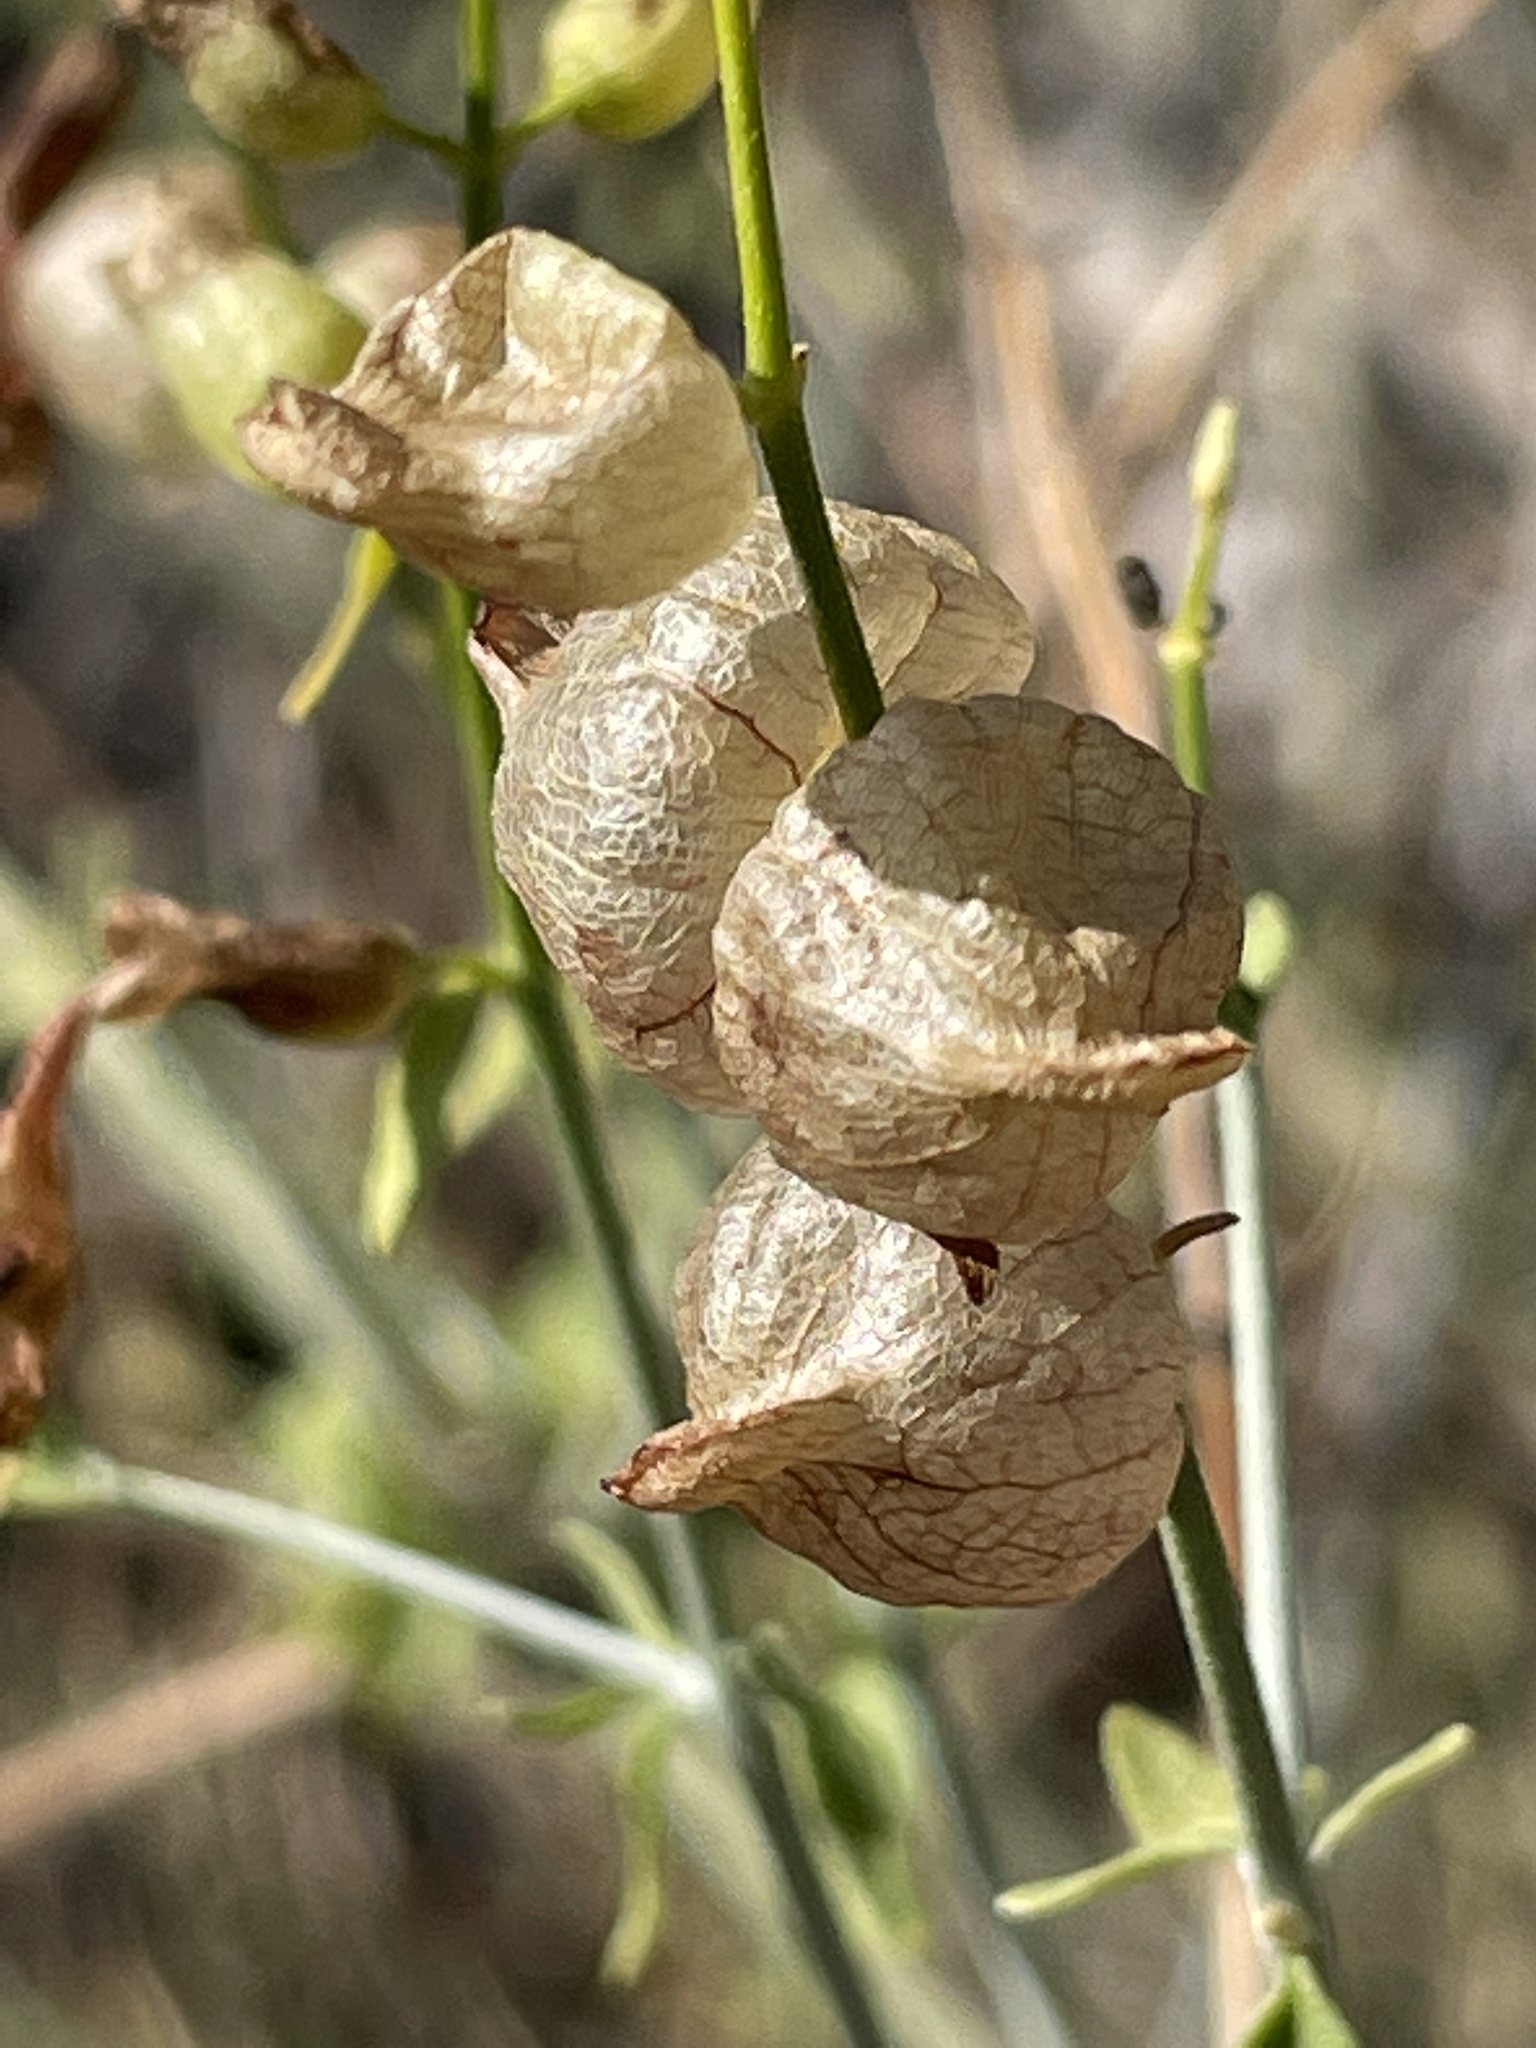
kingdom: Plantae
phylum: Tracheophyta
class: Magnoliopsida
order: Lamiales
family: Lamiaceae
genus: Scutellaria
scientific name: Scutellaria mexicana
